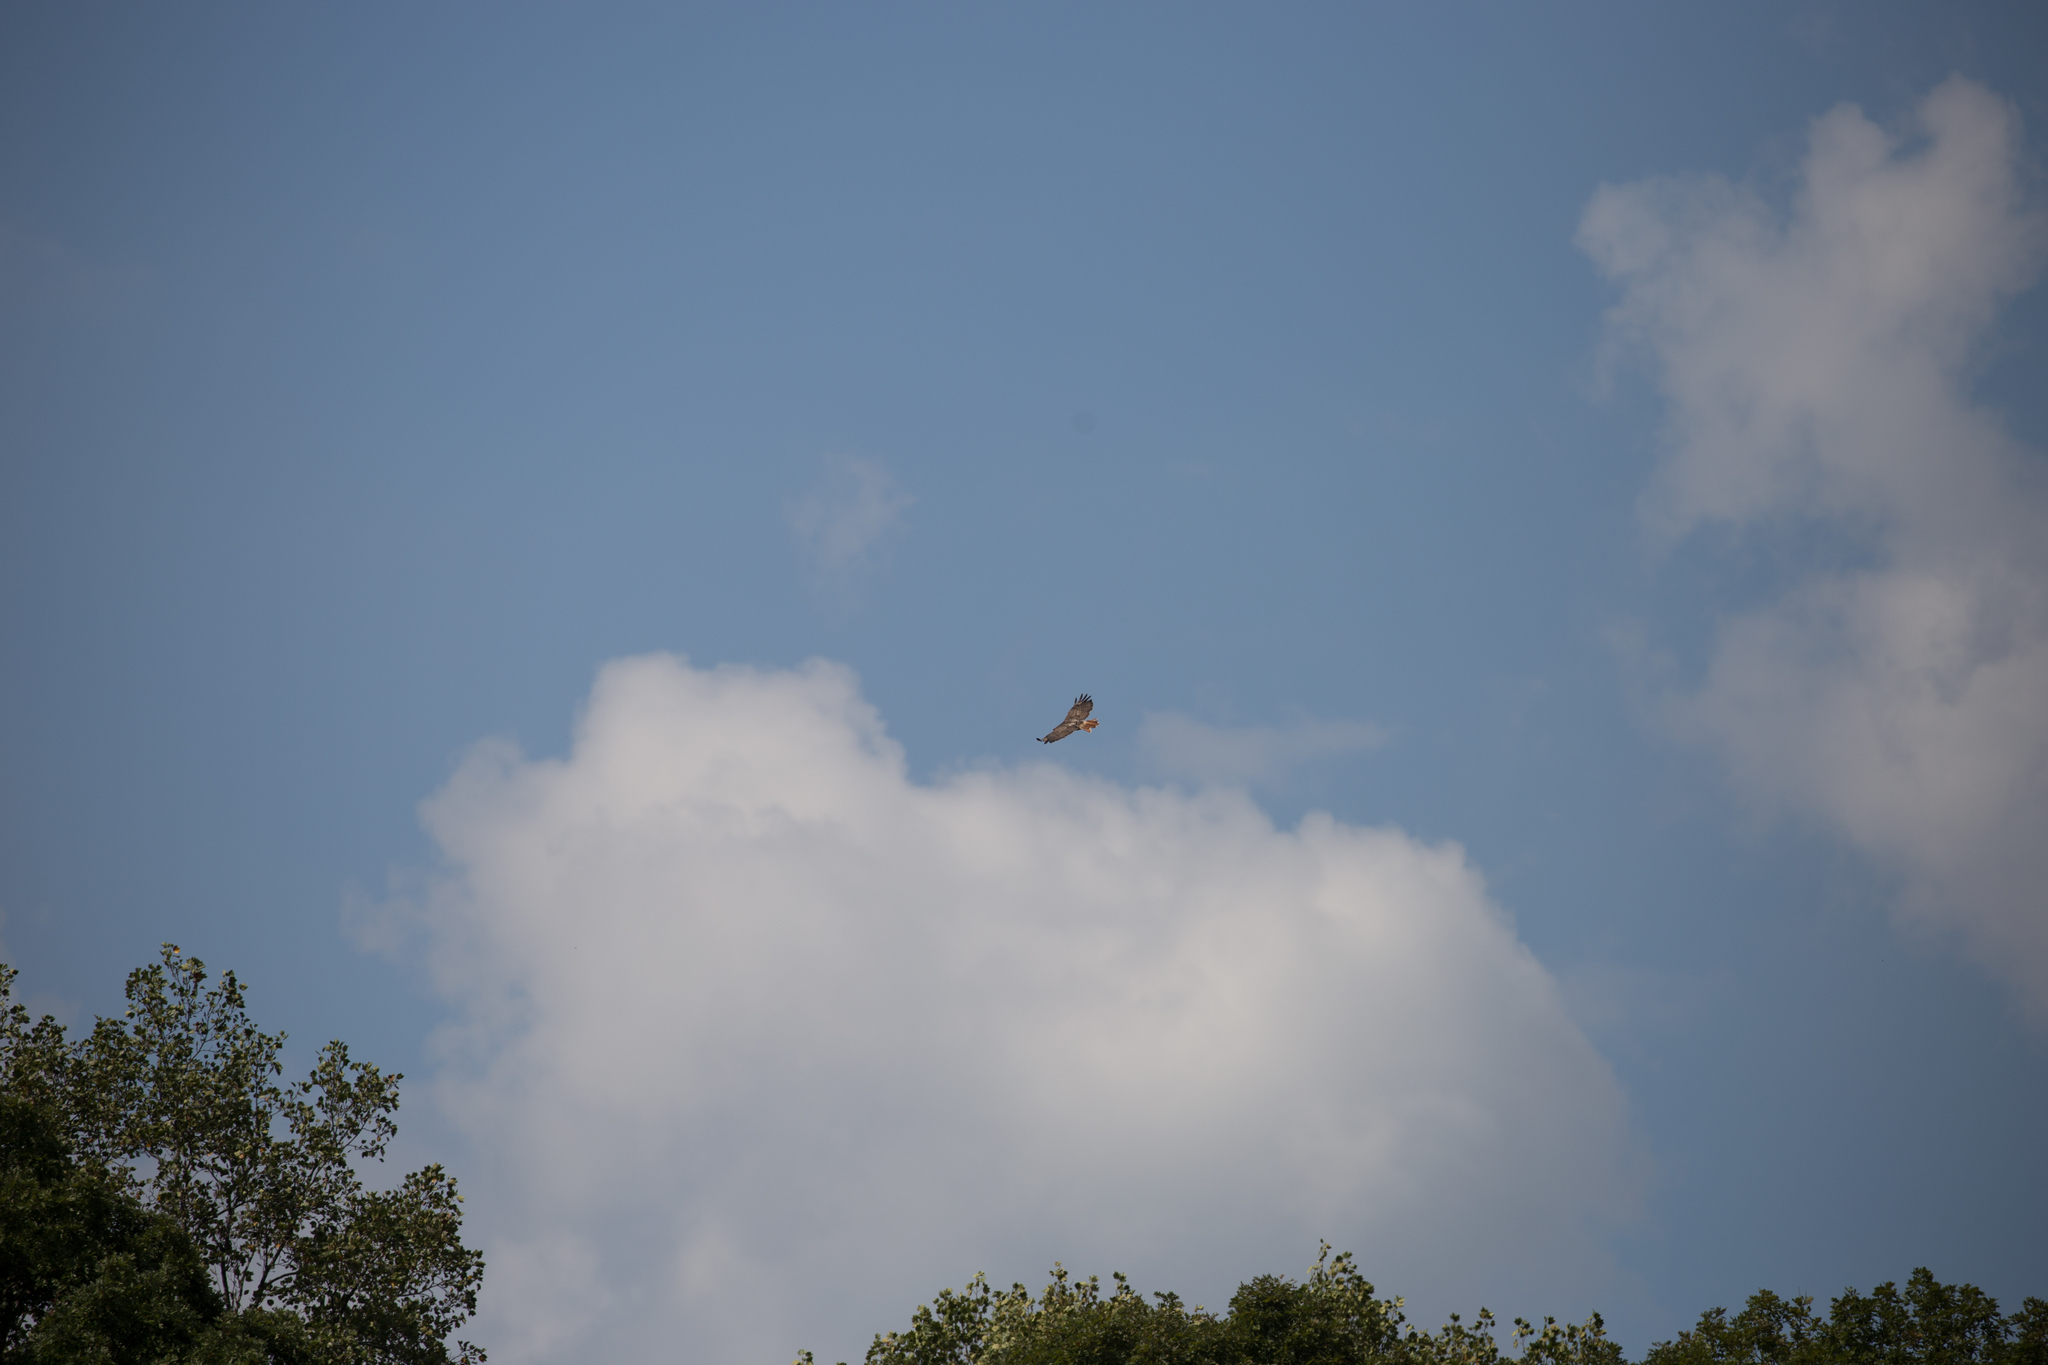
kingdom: Animalia
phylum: Chordata
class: Aves
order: Accipitriformes
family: Accipitridae
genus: Buteo
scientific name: Buteo jamaicensis
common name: Red-tailed hawk
